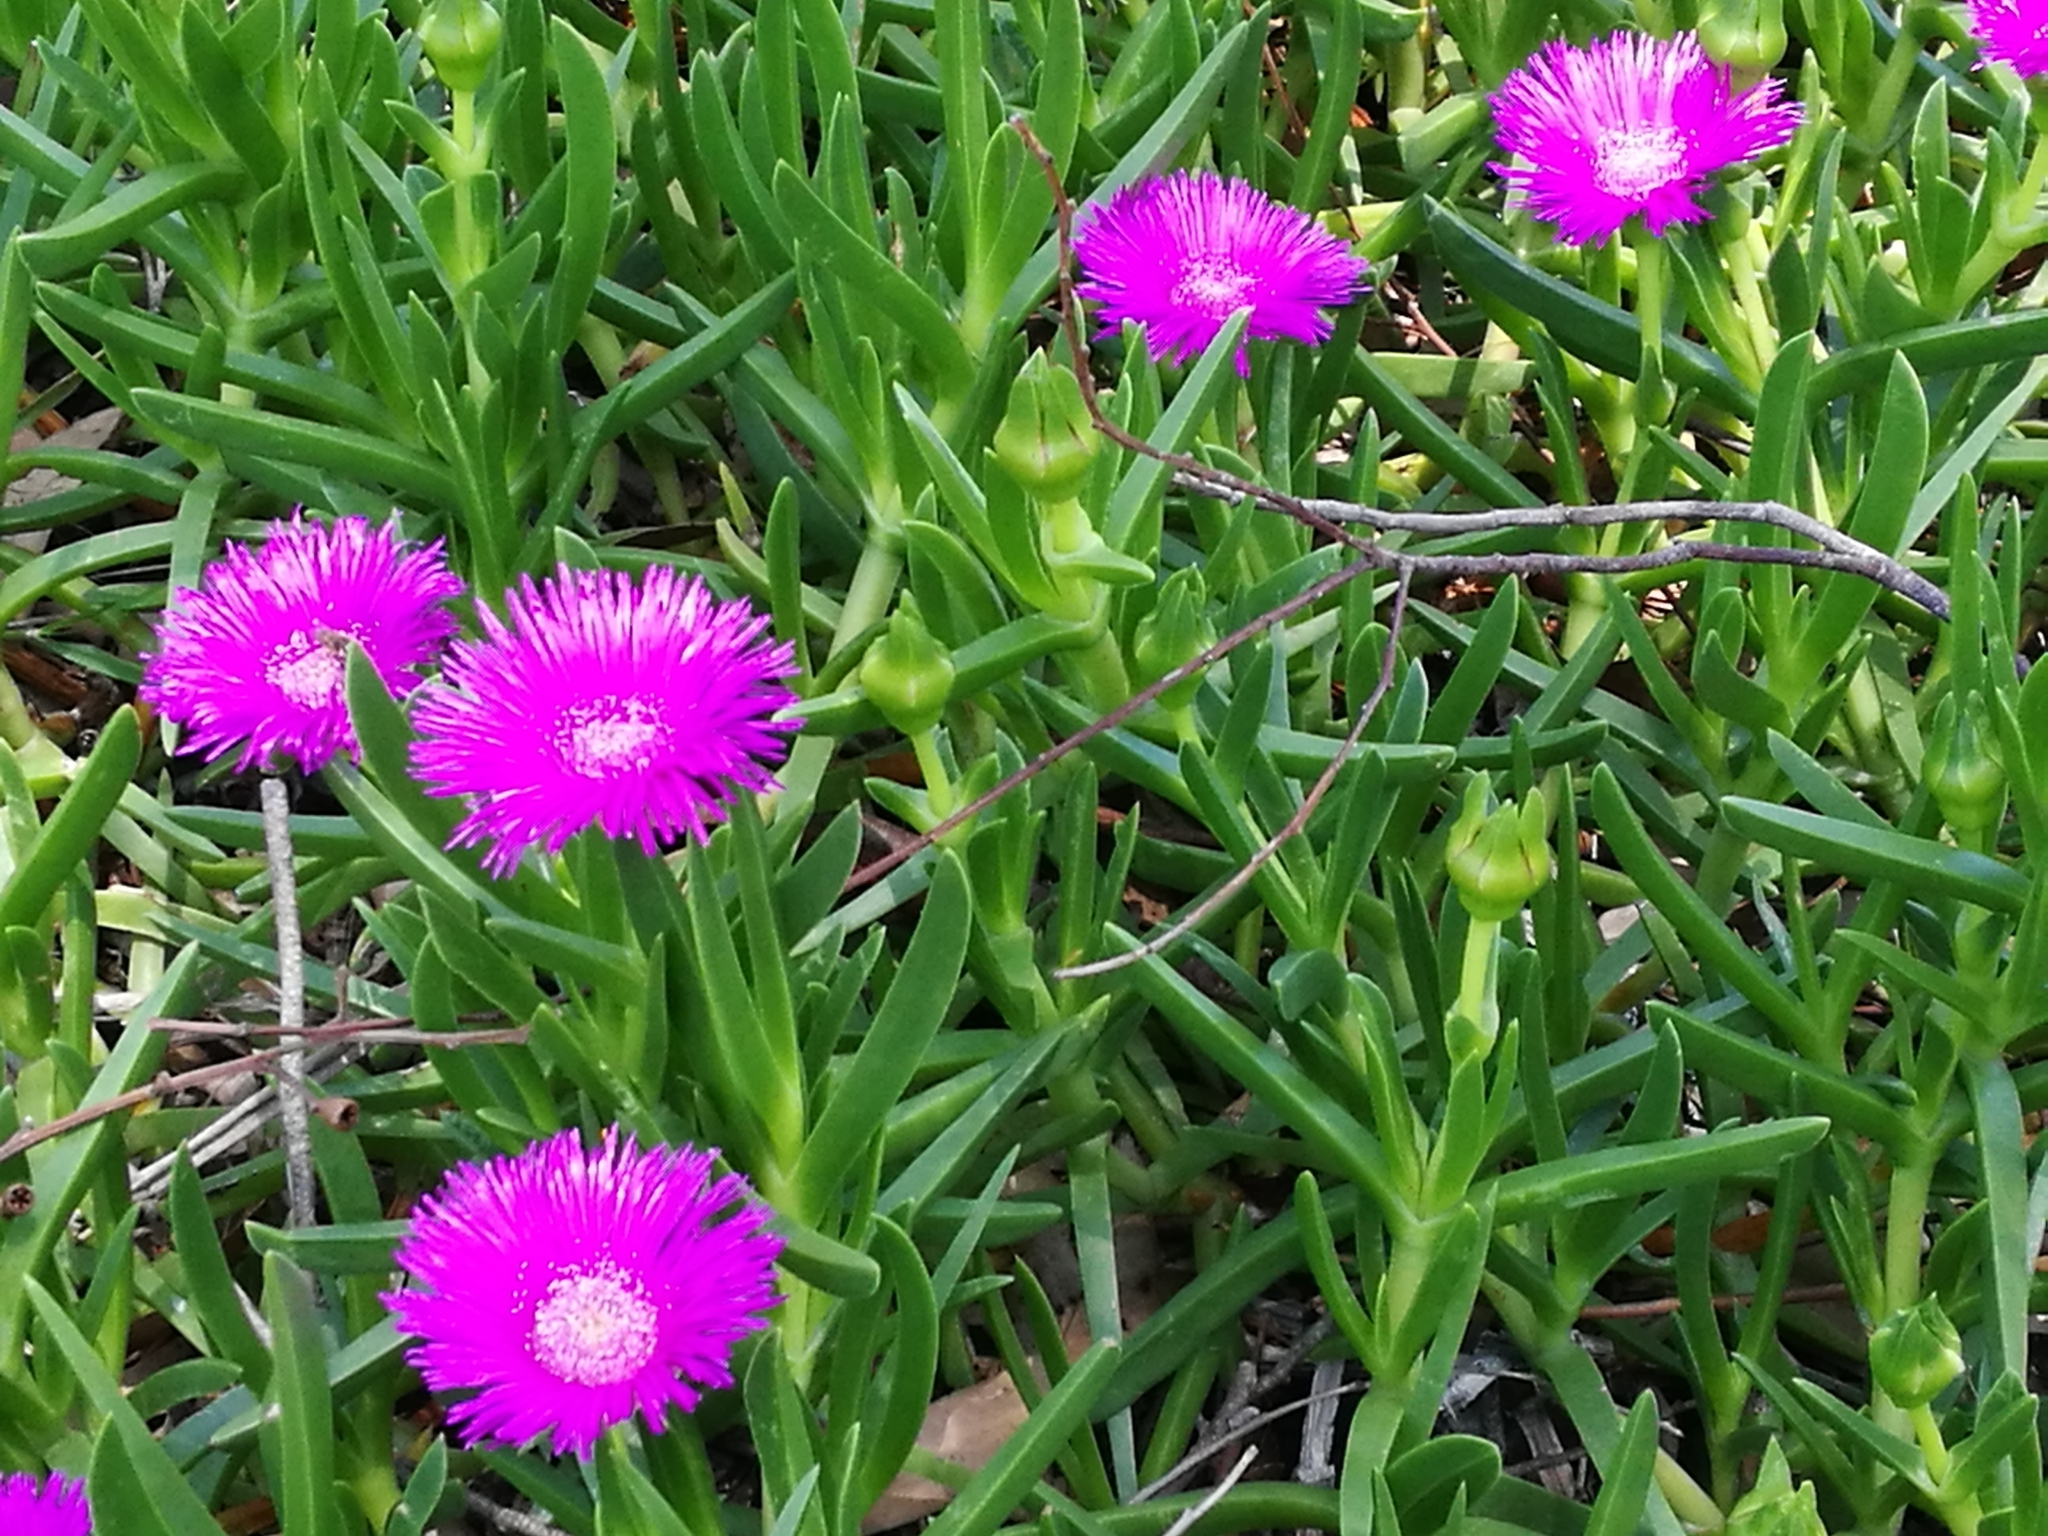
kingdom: Plantae
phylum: Tracheophyta
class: Magnoliopsida
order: Caryophyllales
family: Aizoaceae
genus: Carpobrotus
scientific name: Carpobrotus deliciosus
